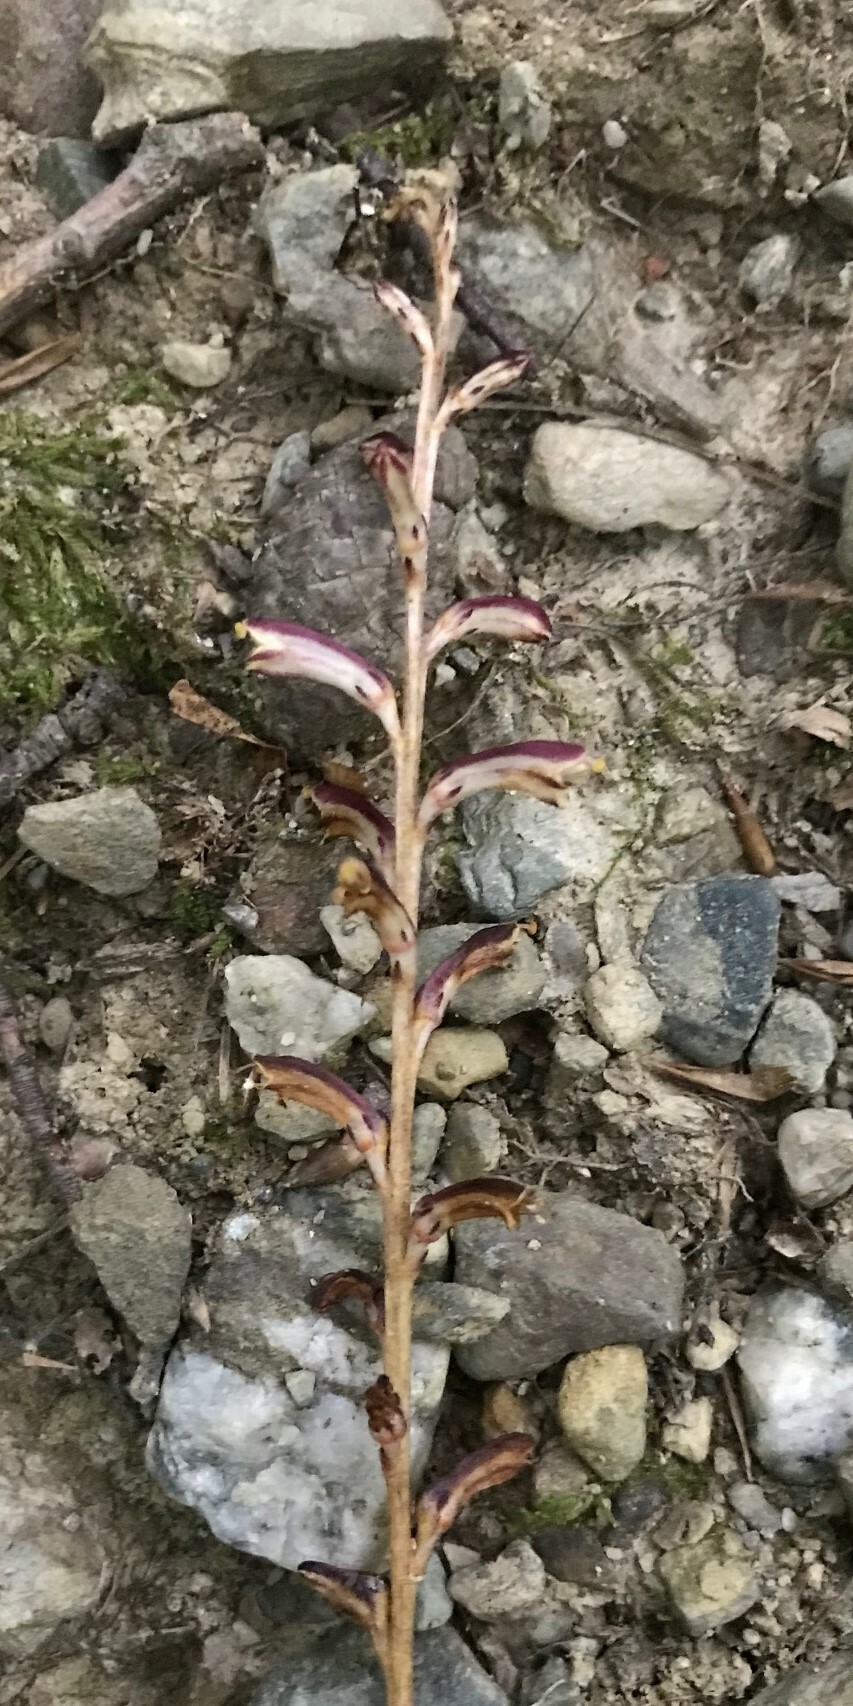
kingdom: Plantae
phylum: Tracheophyta
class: Magnoliopsida
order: Lamiales
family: Orobanchaceae
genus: Epifagus
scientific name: Epifagus virginiana
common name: Beechdrops
